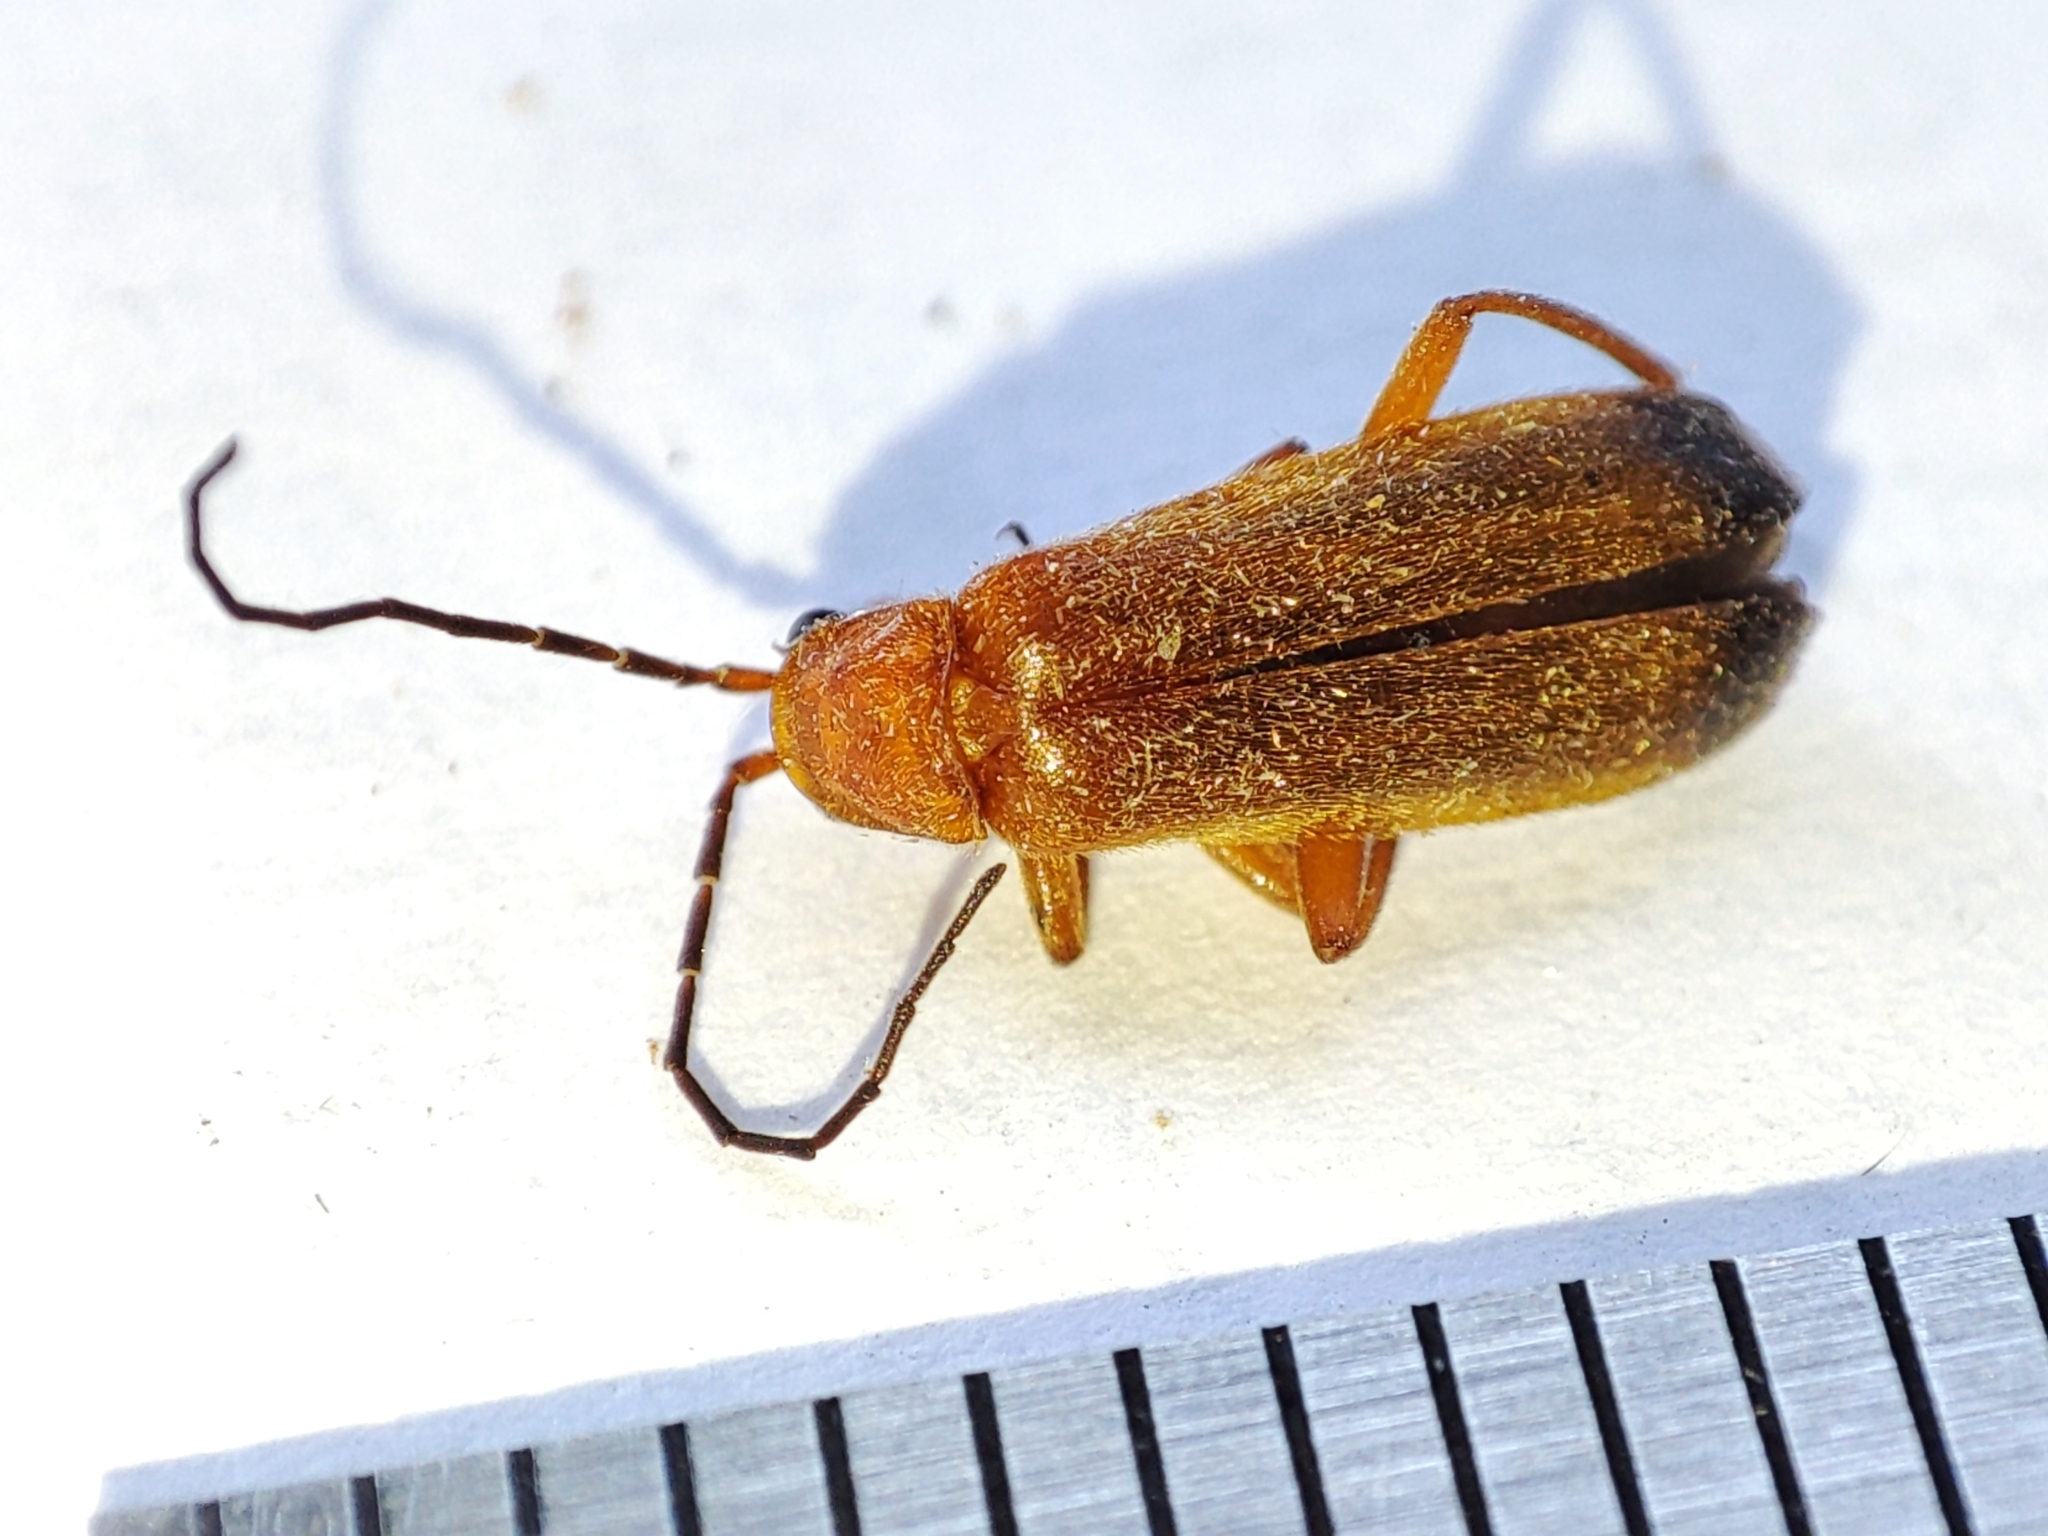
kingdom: Animalia
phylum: Arthropoda
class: Insecta
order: Coleoptera
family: Cantharidae
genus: Rhagonycha
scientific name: Rhagonycha fulva
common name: Common red soldier beetle
